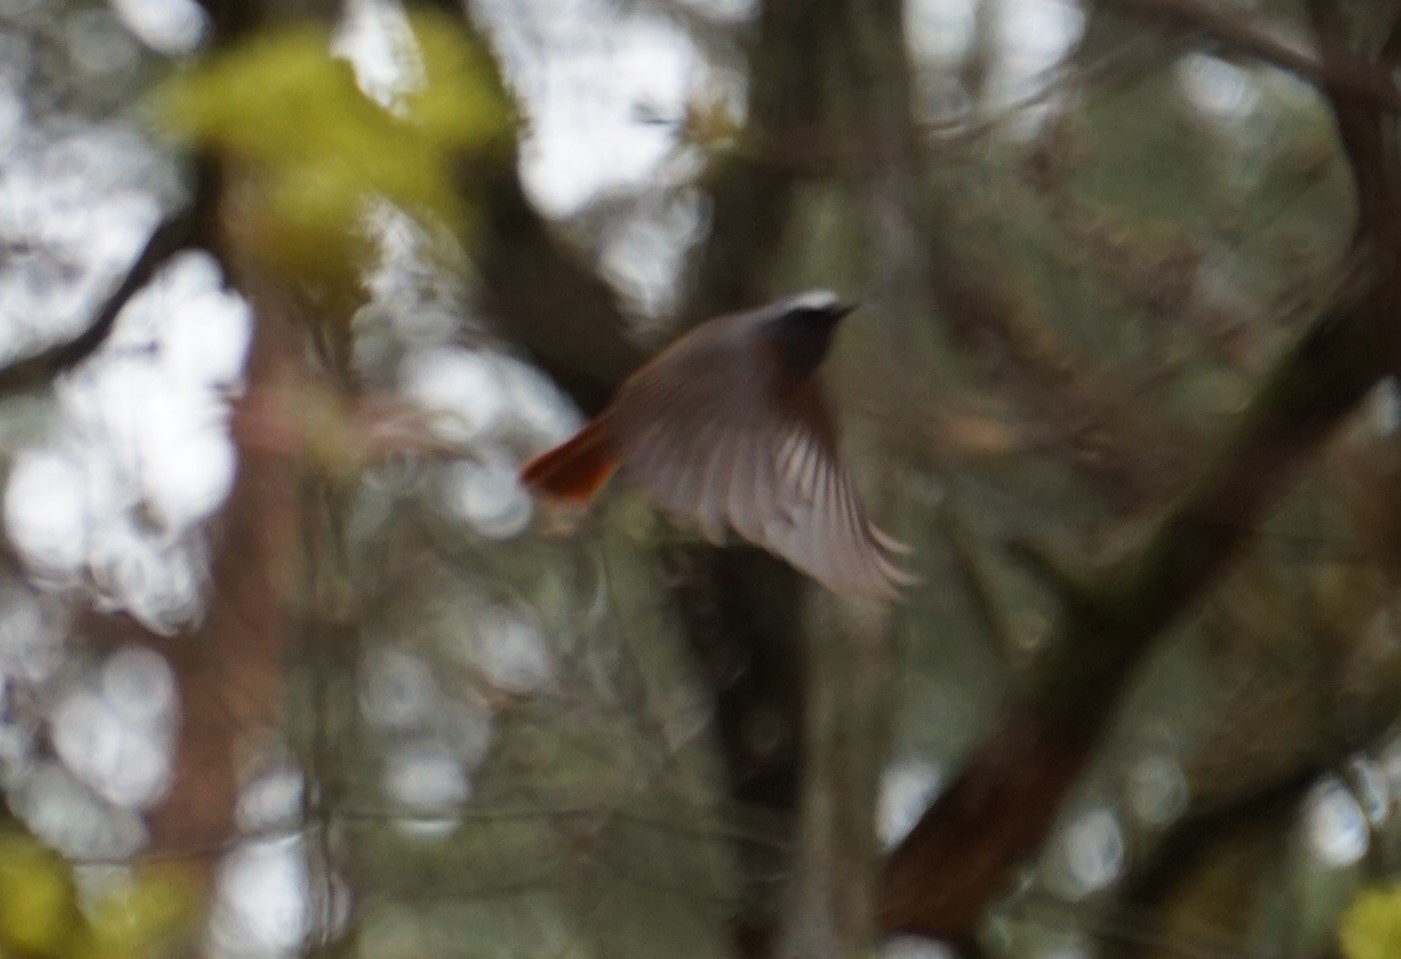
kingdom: Animalia
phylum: Chordata
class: Aves
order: Passeriformes
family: Muscicapidae
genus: Phoenicurus
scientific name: Phoenicurus phoenicurus
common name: Common redstart
